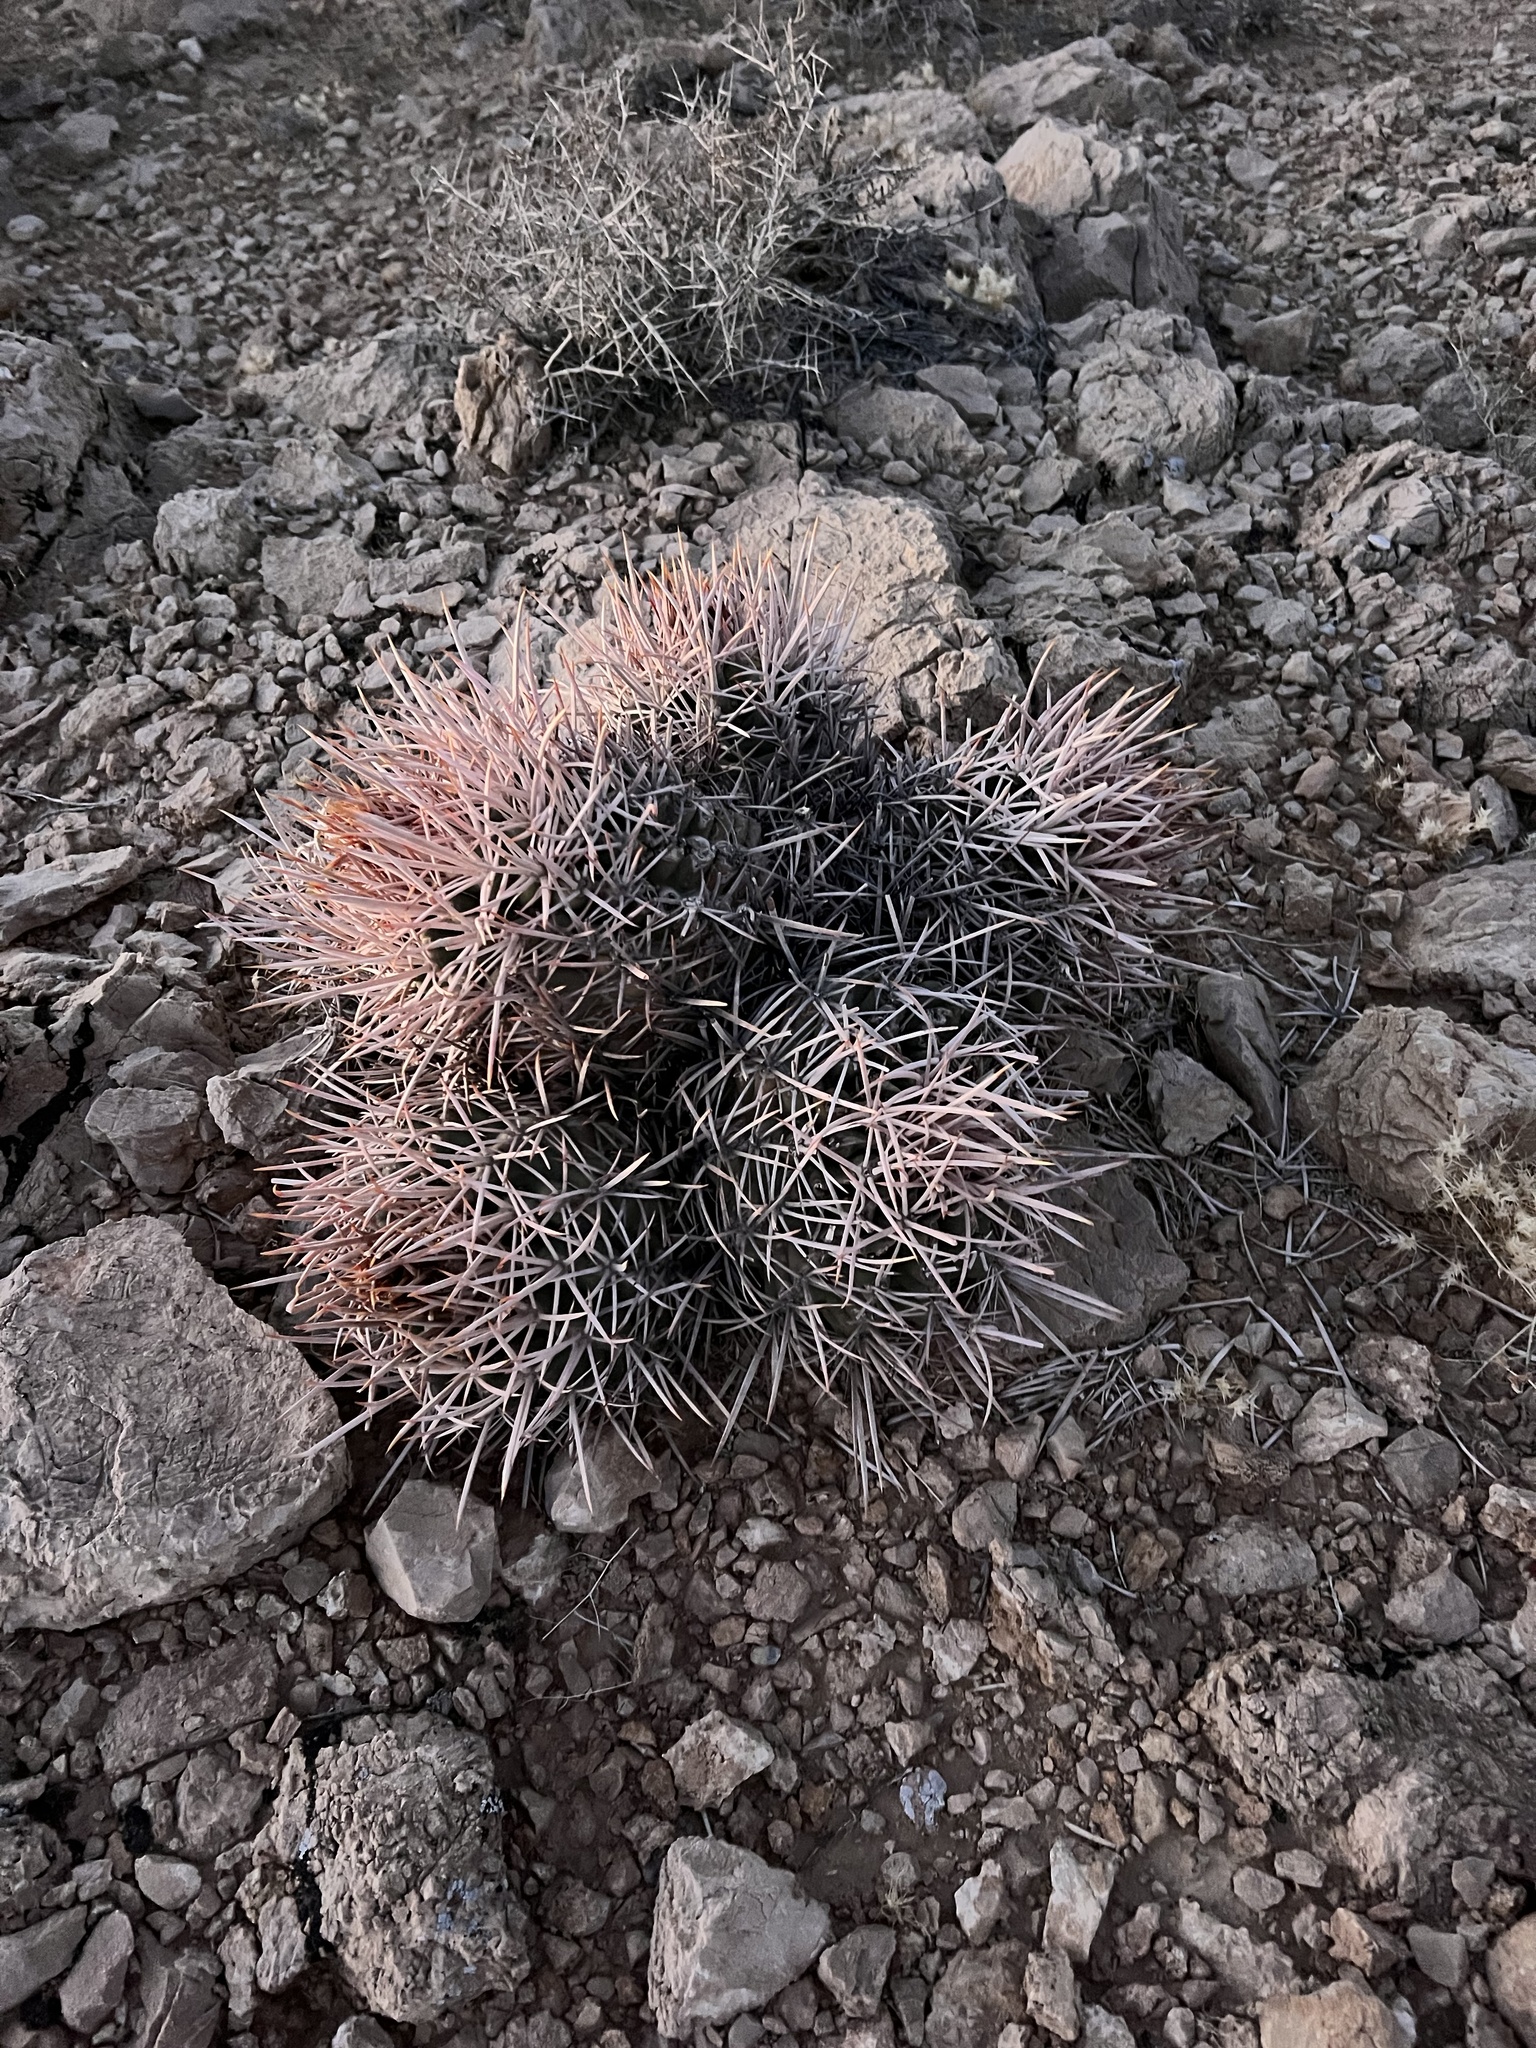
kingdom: Plantae
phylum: Tracheophyta
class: Magnoliopsida
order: Caryophyllales
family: Cactaceae
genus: Echinocactus
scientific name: Echinocactus polycephalus
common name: Cottontop cactus
